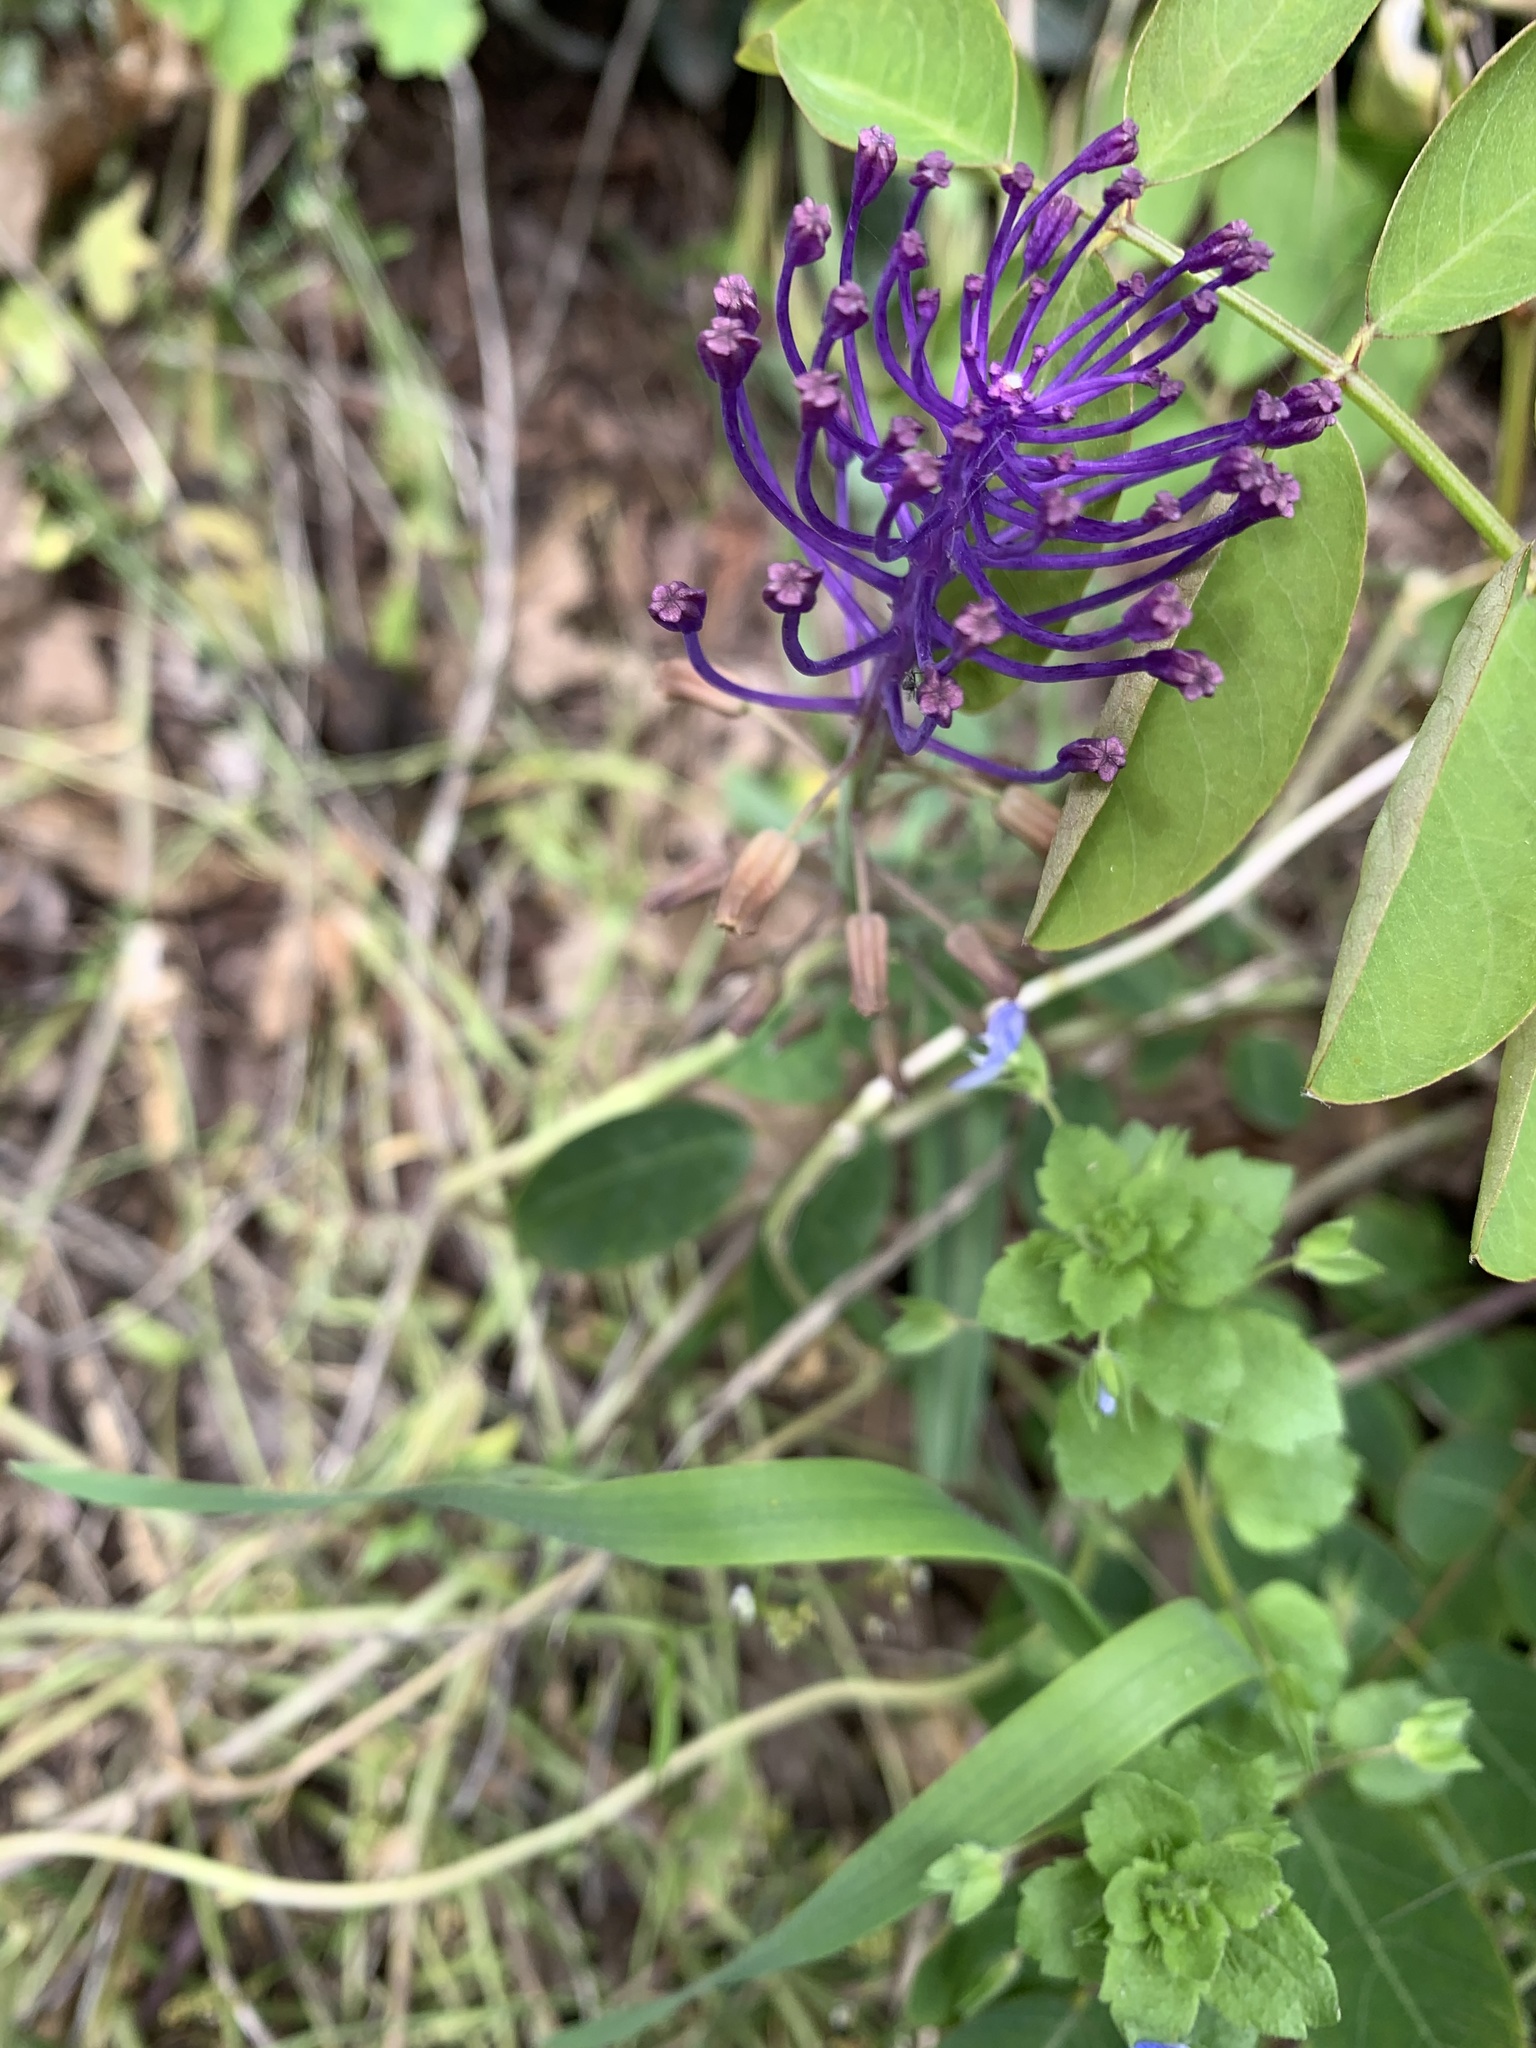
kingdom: Plantae
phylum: Tracheophyta
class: Liliopsida
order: Asparagales
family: Asparagaceae
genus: Muscari
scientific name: Muscari comosum
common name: Tassel hyacinth
